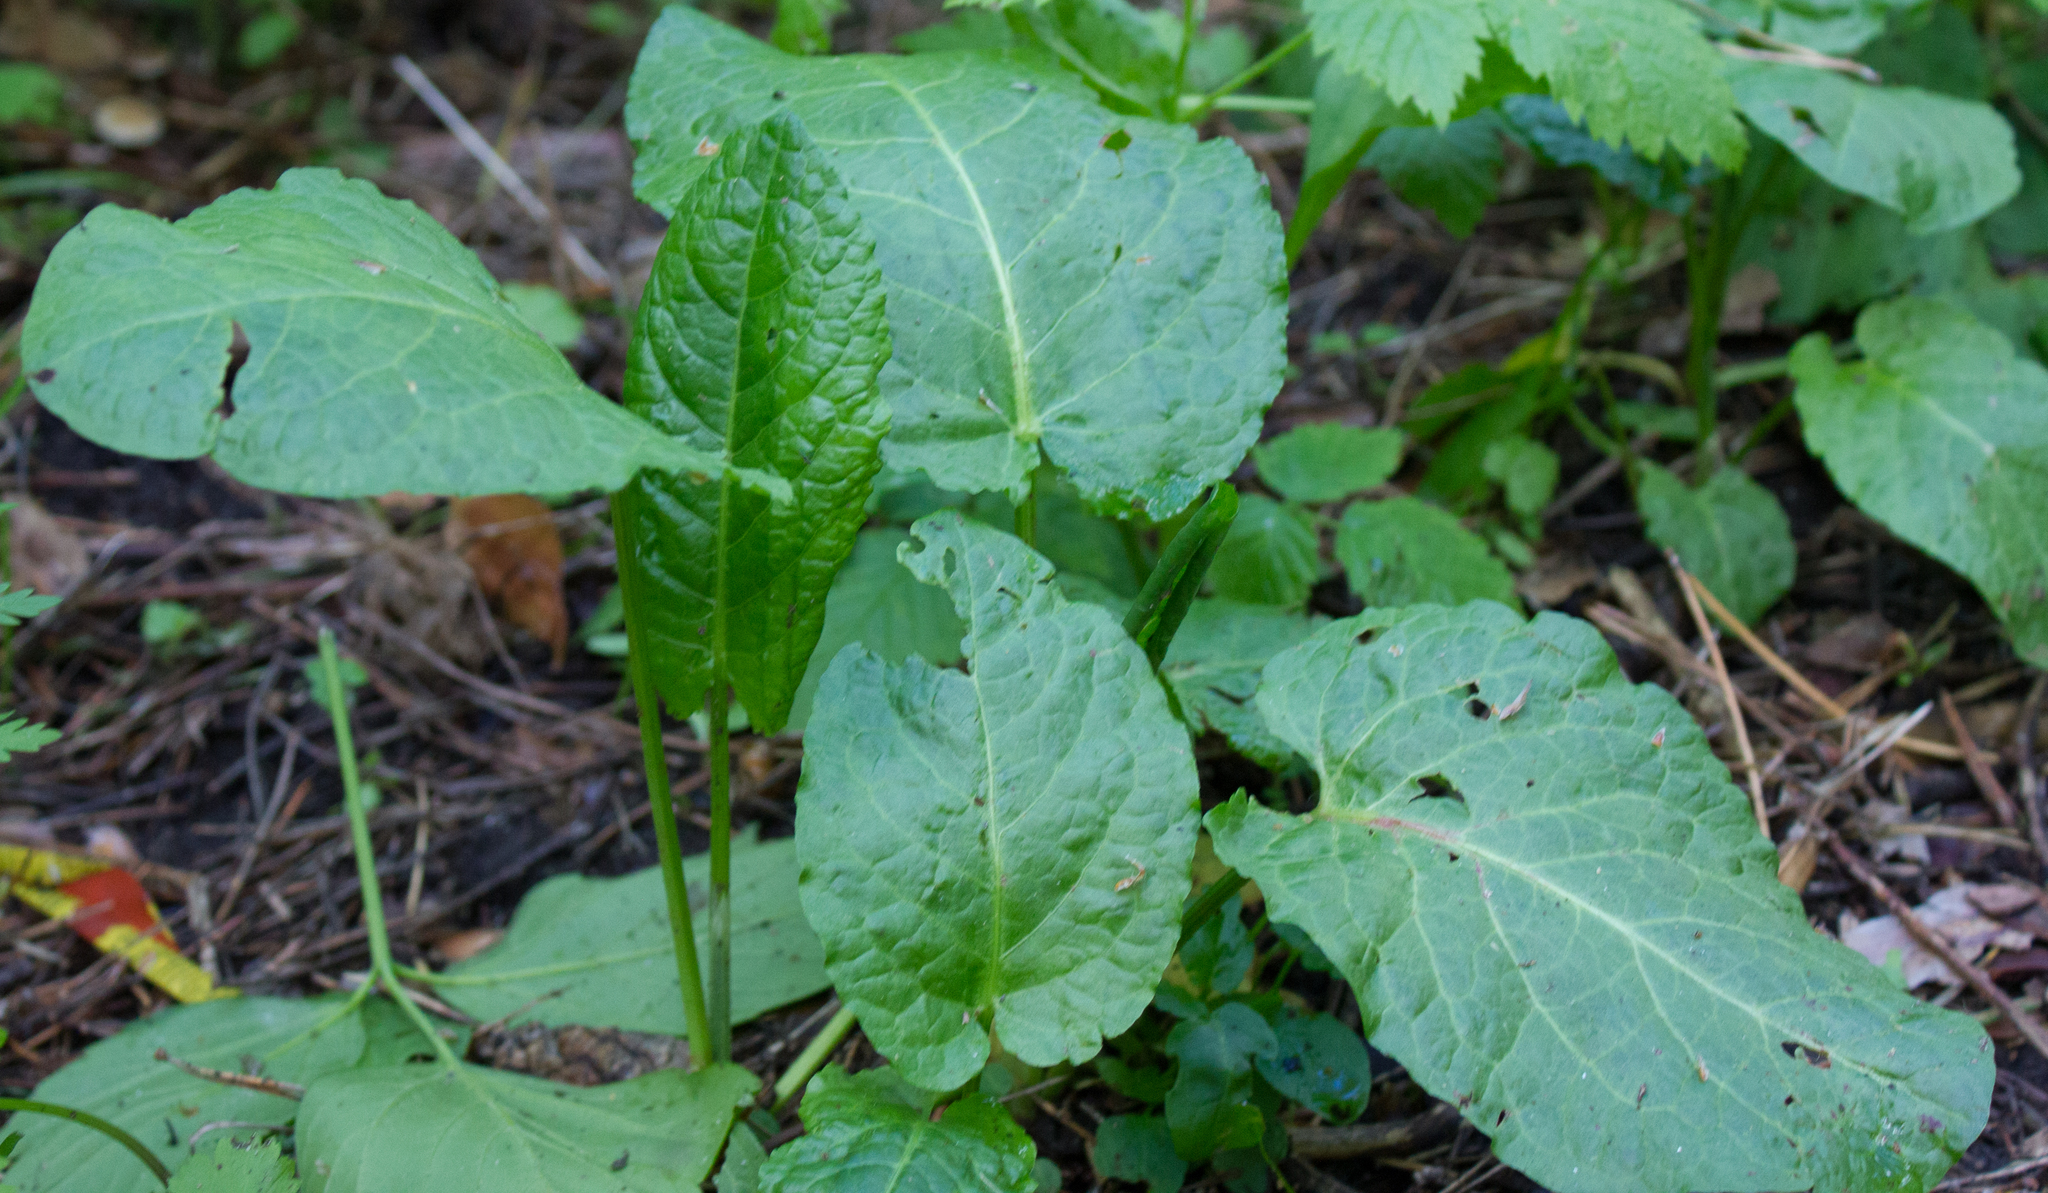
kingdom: Plantae
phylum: Tracheophyta
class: Magnoliopsida
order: Caryophyllales
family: Polygonaceae
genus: Rumex
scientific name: Rumex obtusifolius
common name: Bitter dock
